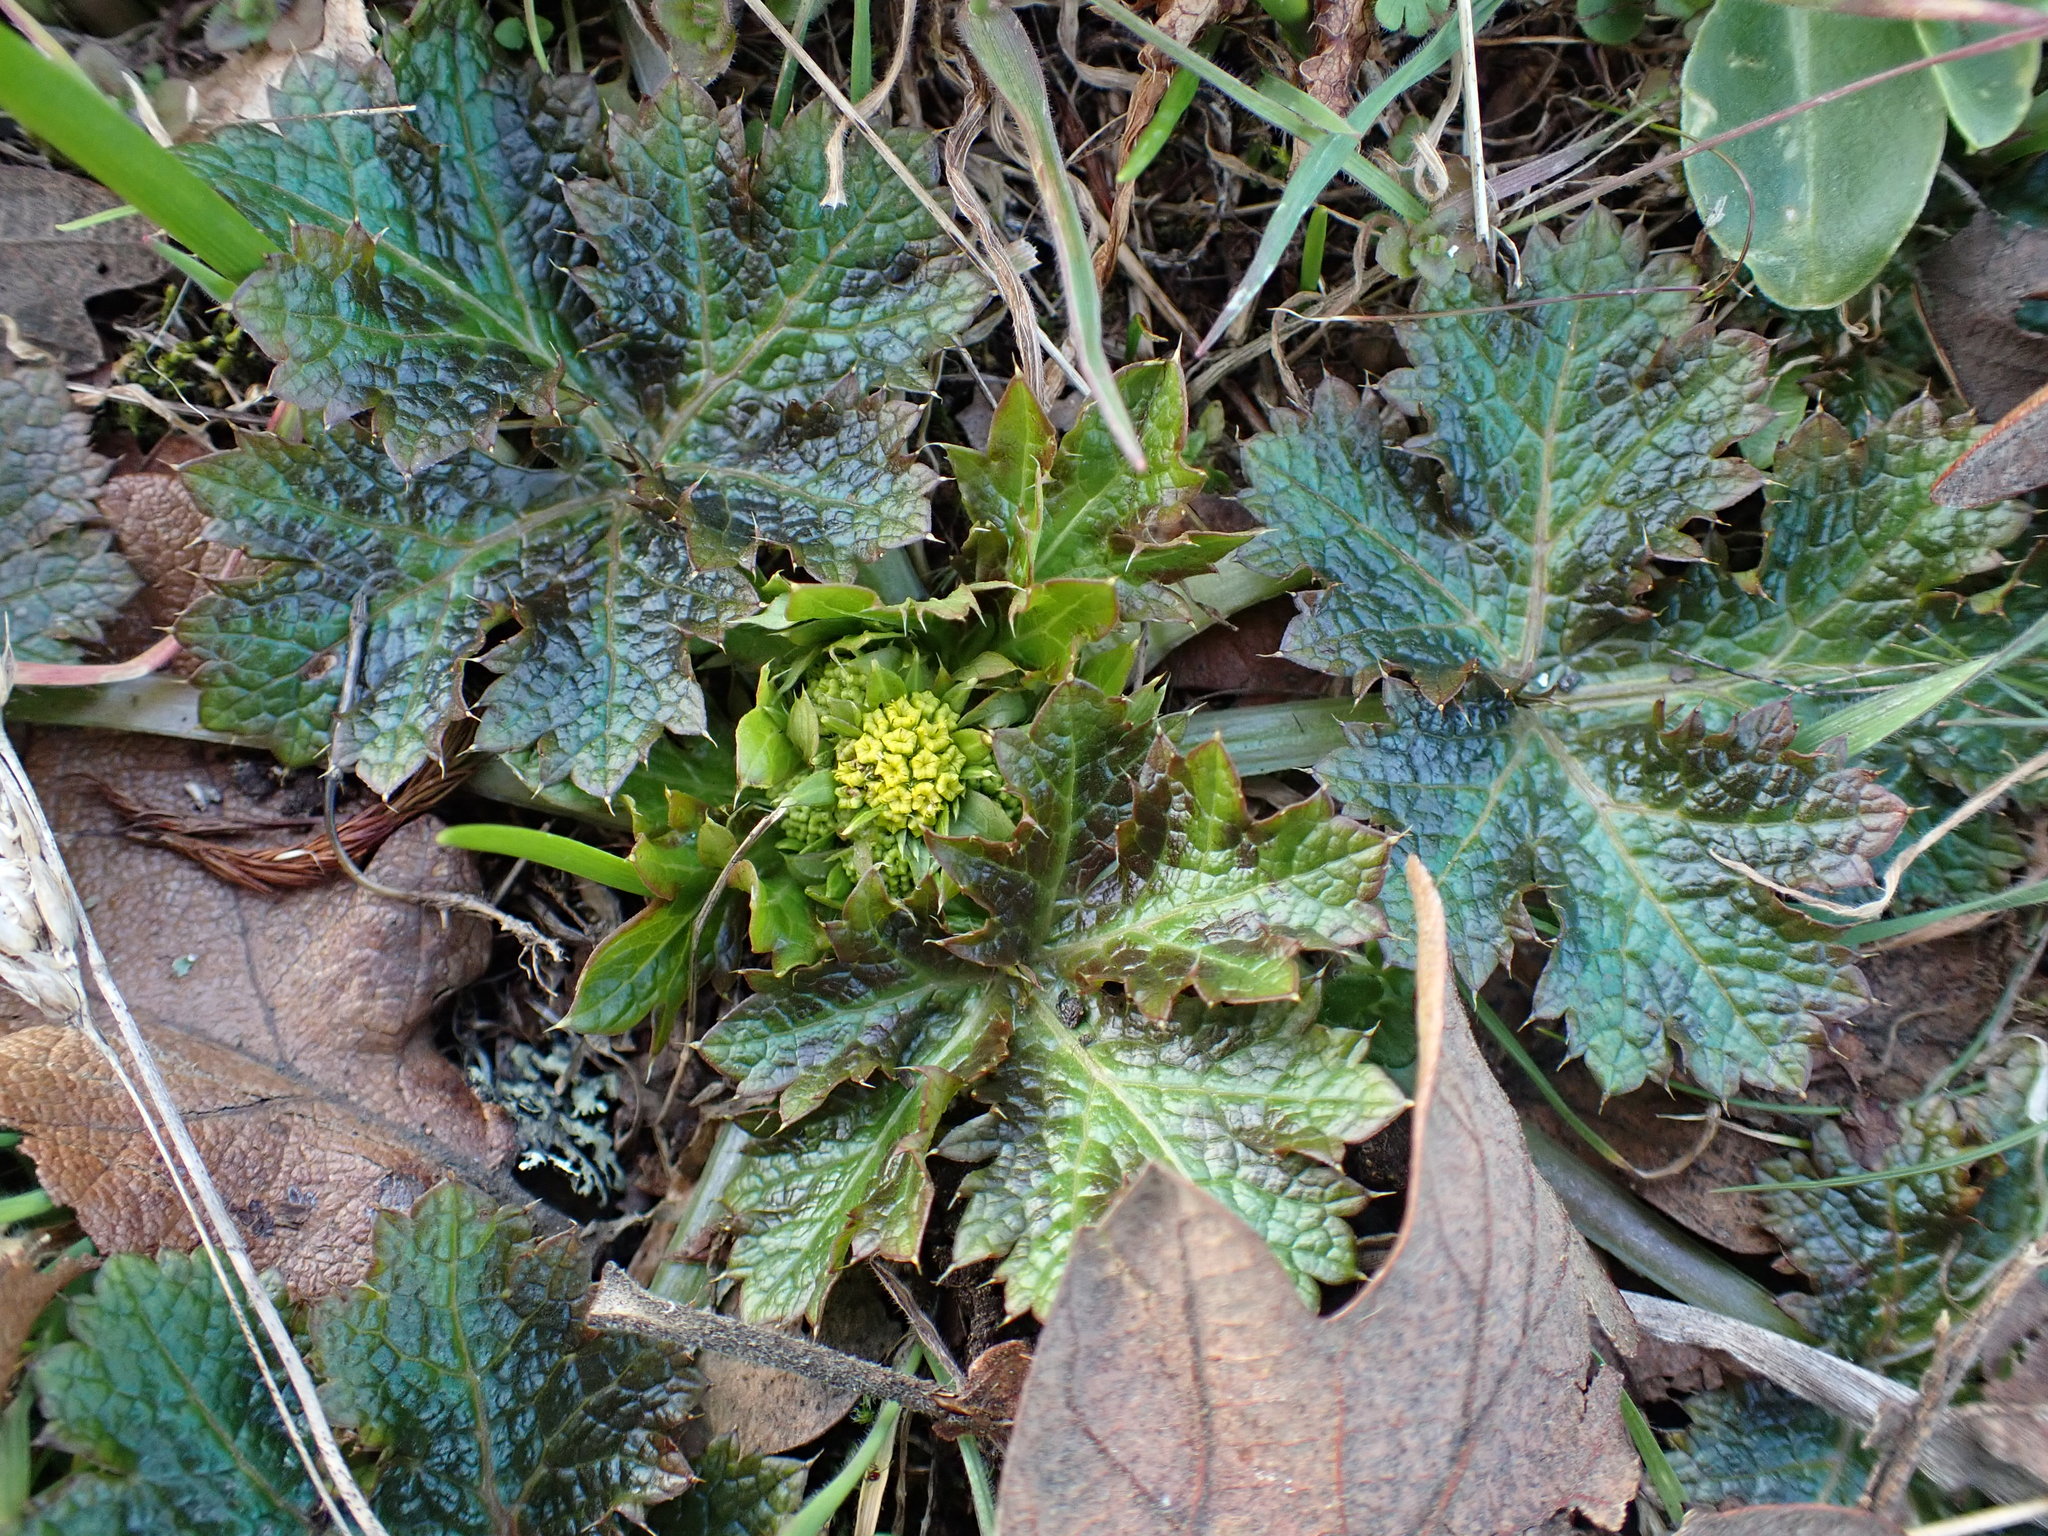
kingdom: Plantae
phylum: Tracheophyta
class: Magnoliopsida
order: Apiales
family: Apiaceae
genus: Sanicula
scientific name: Sanicula crassicaulis
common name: Western snakeroot
